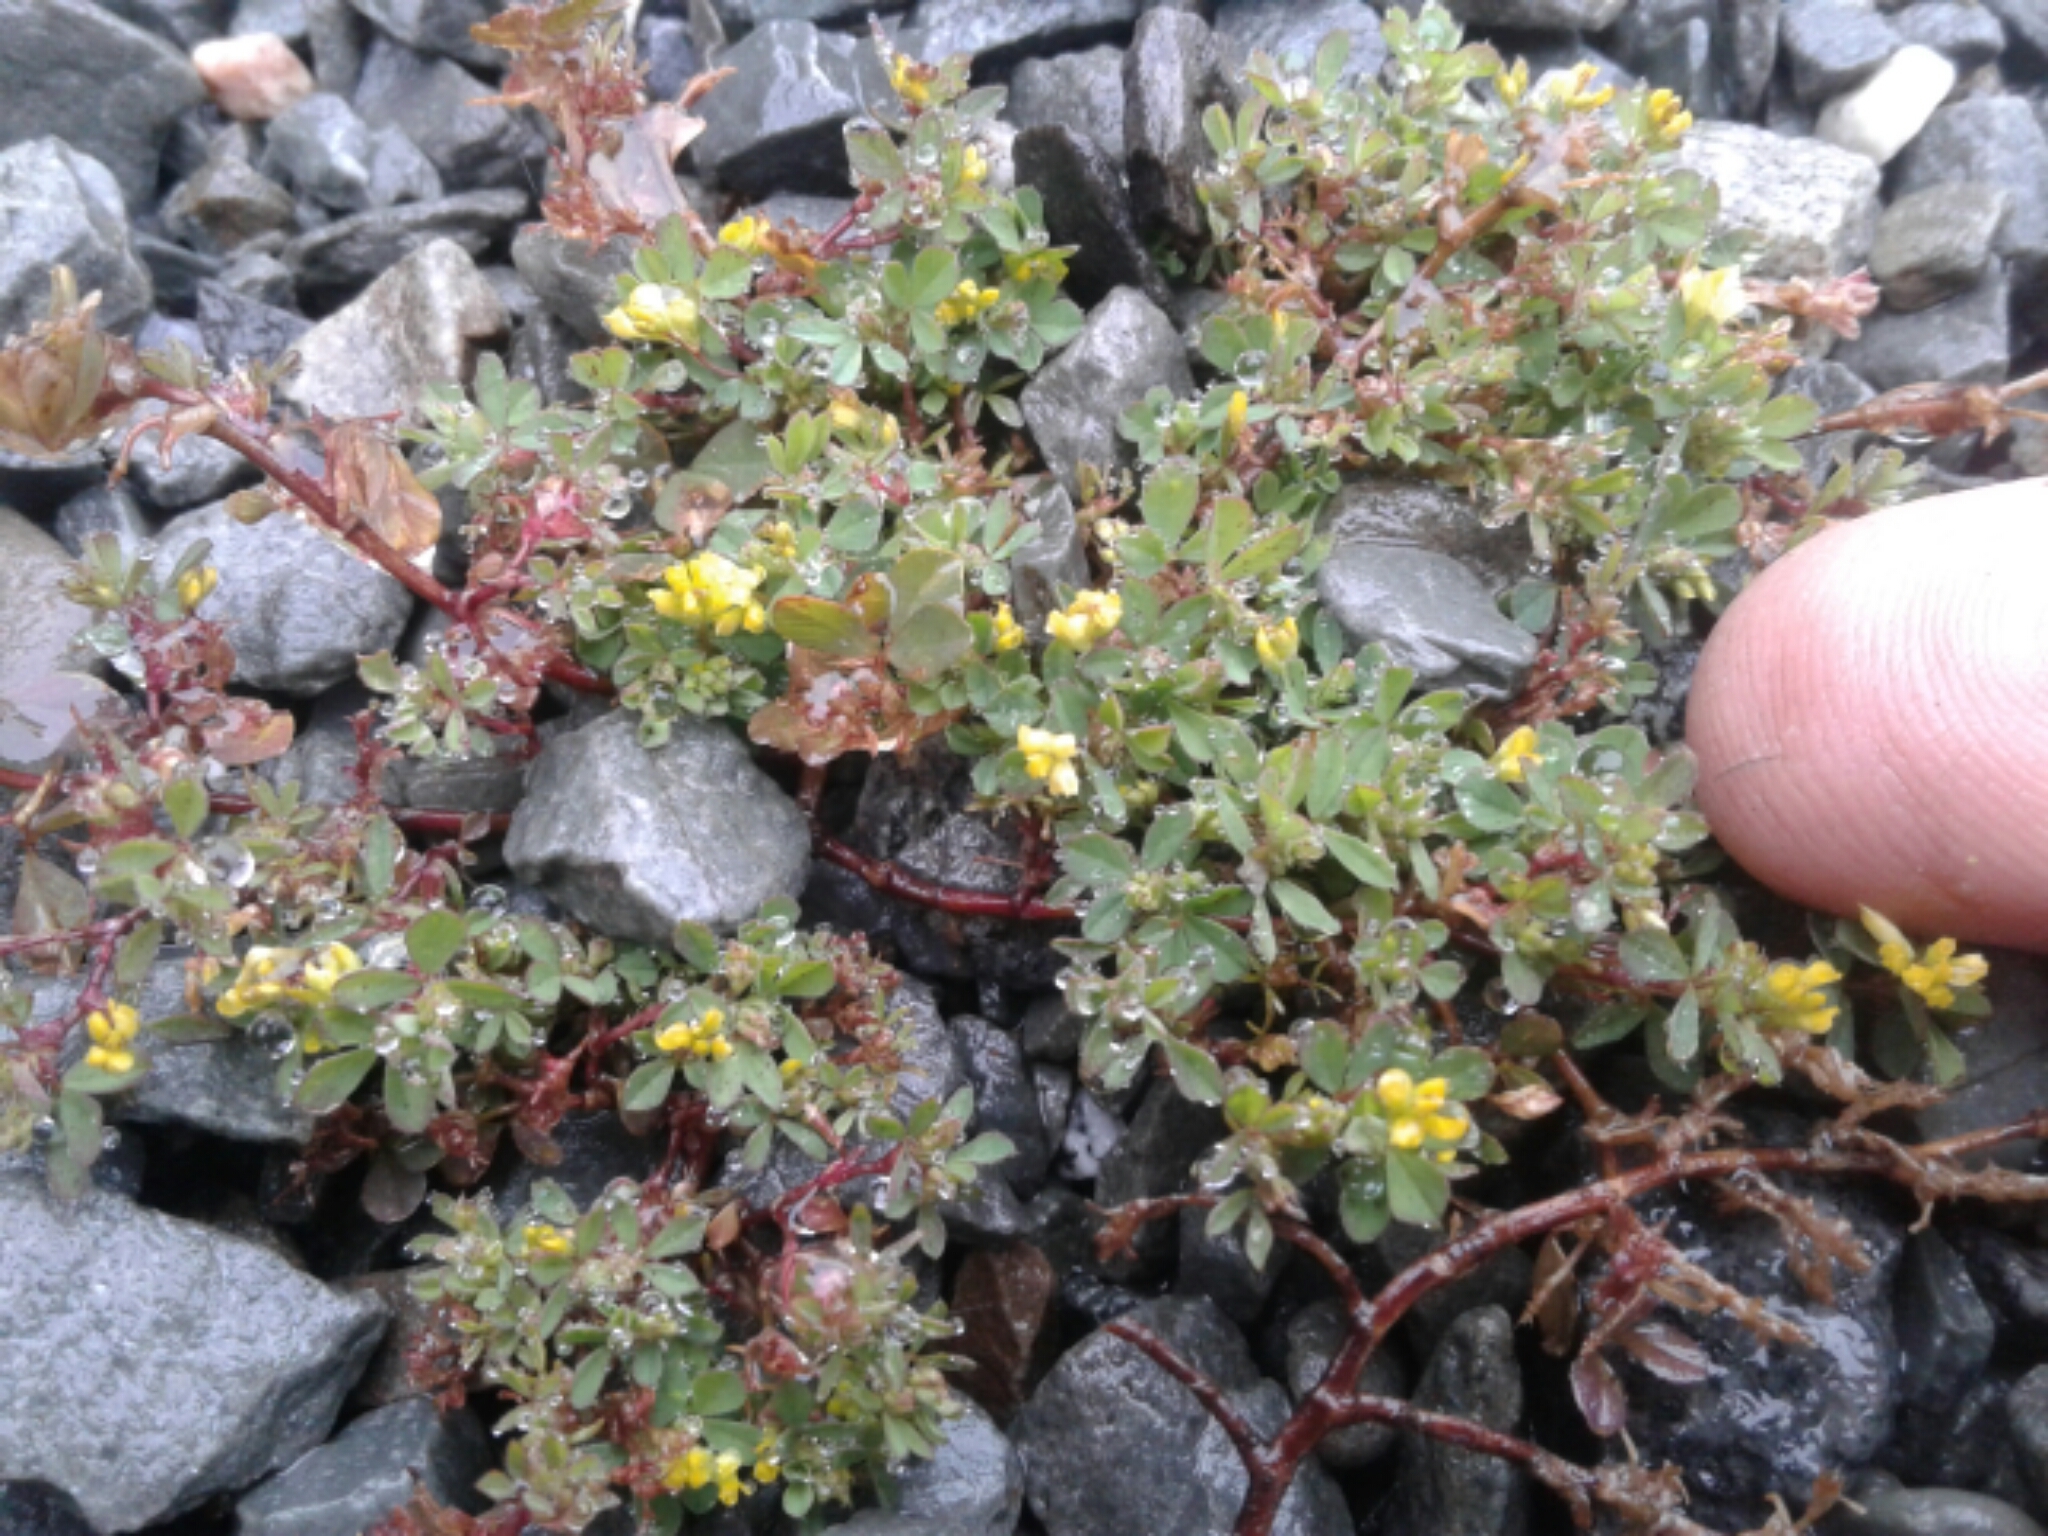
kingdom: Plantae
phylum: Tracheophyta
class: Magnoliopsida
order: Fabales
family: Fabaceae
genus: Trifolium
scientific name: Trifolium dubium
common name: Suckling clover
